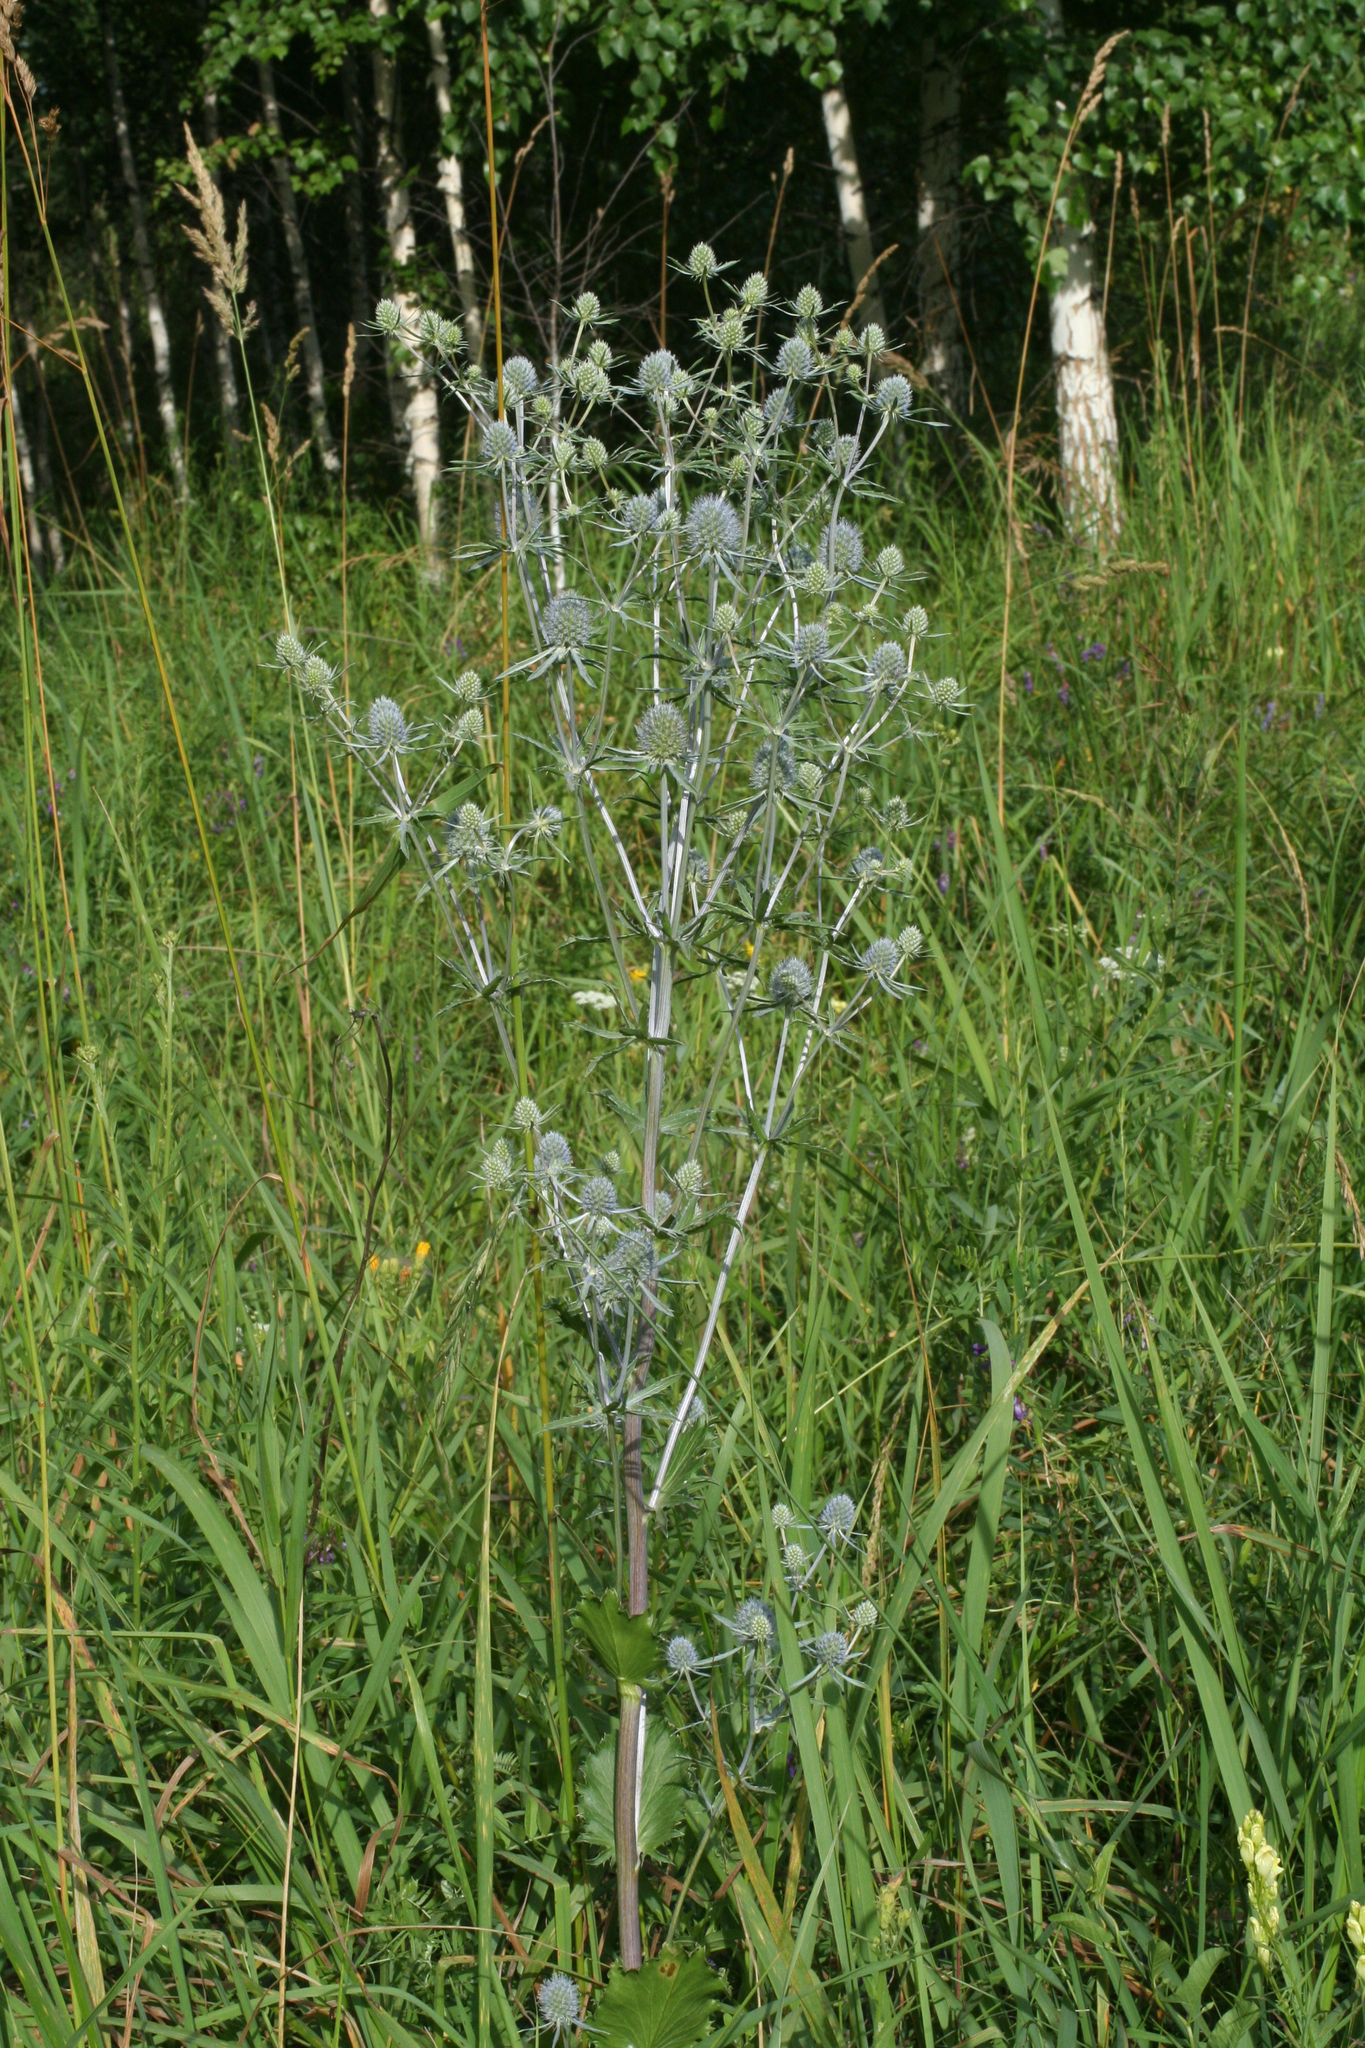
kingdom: Plantae
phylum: Tracheophyta
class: Magnoliopsida
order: Apiales
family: Apiaceae
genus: Eryngium
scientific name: Eryngium planum
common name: Blue eryngo
